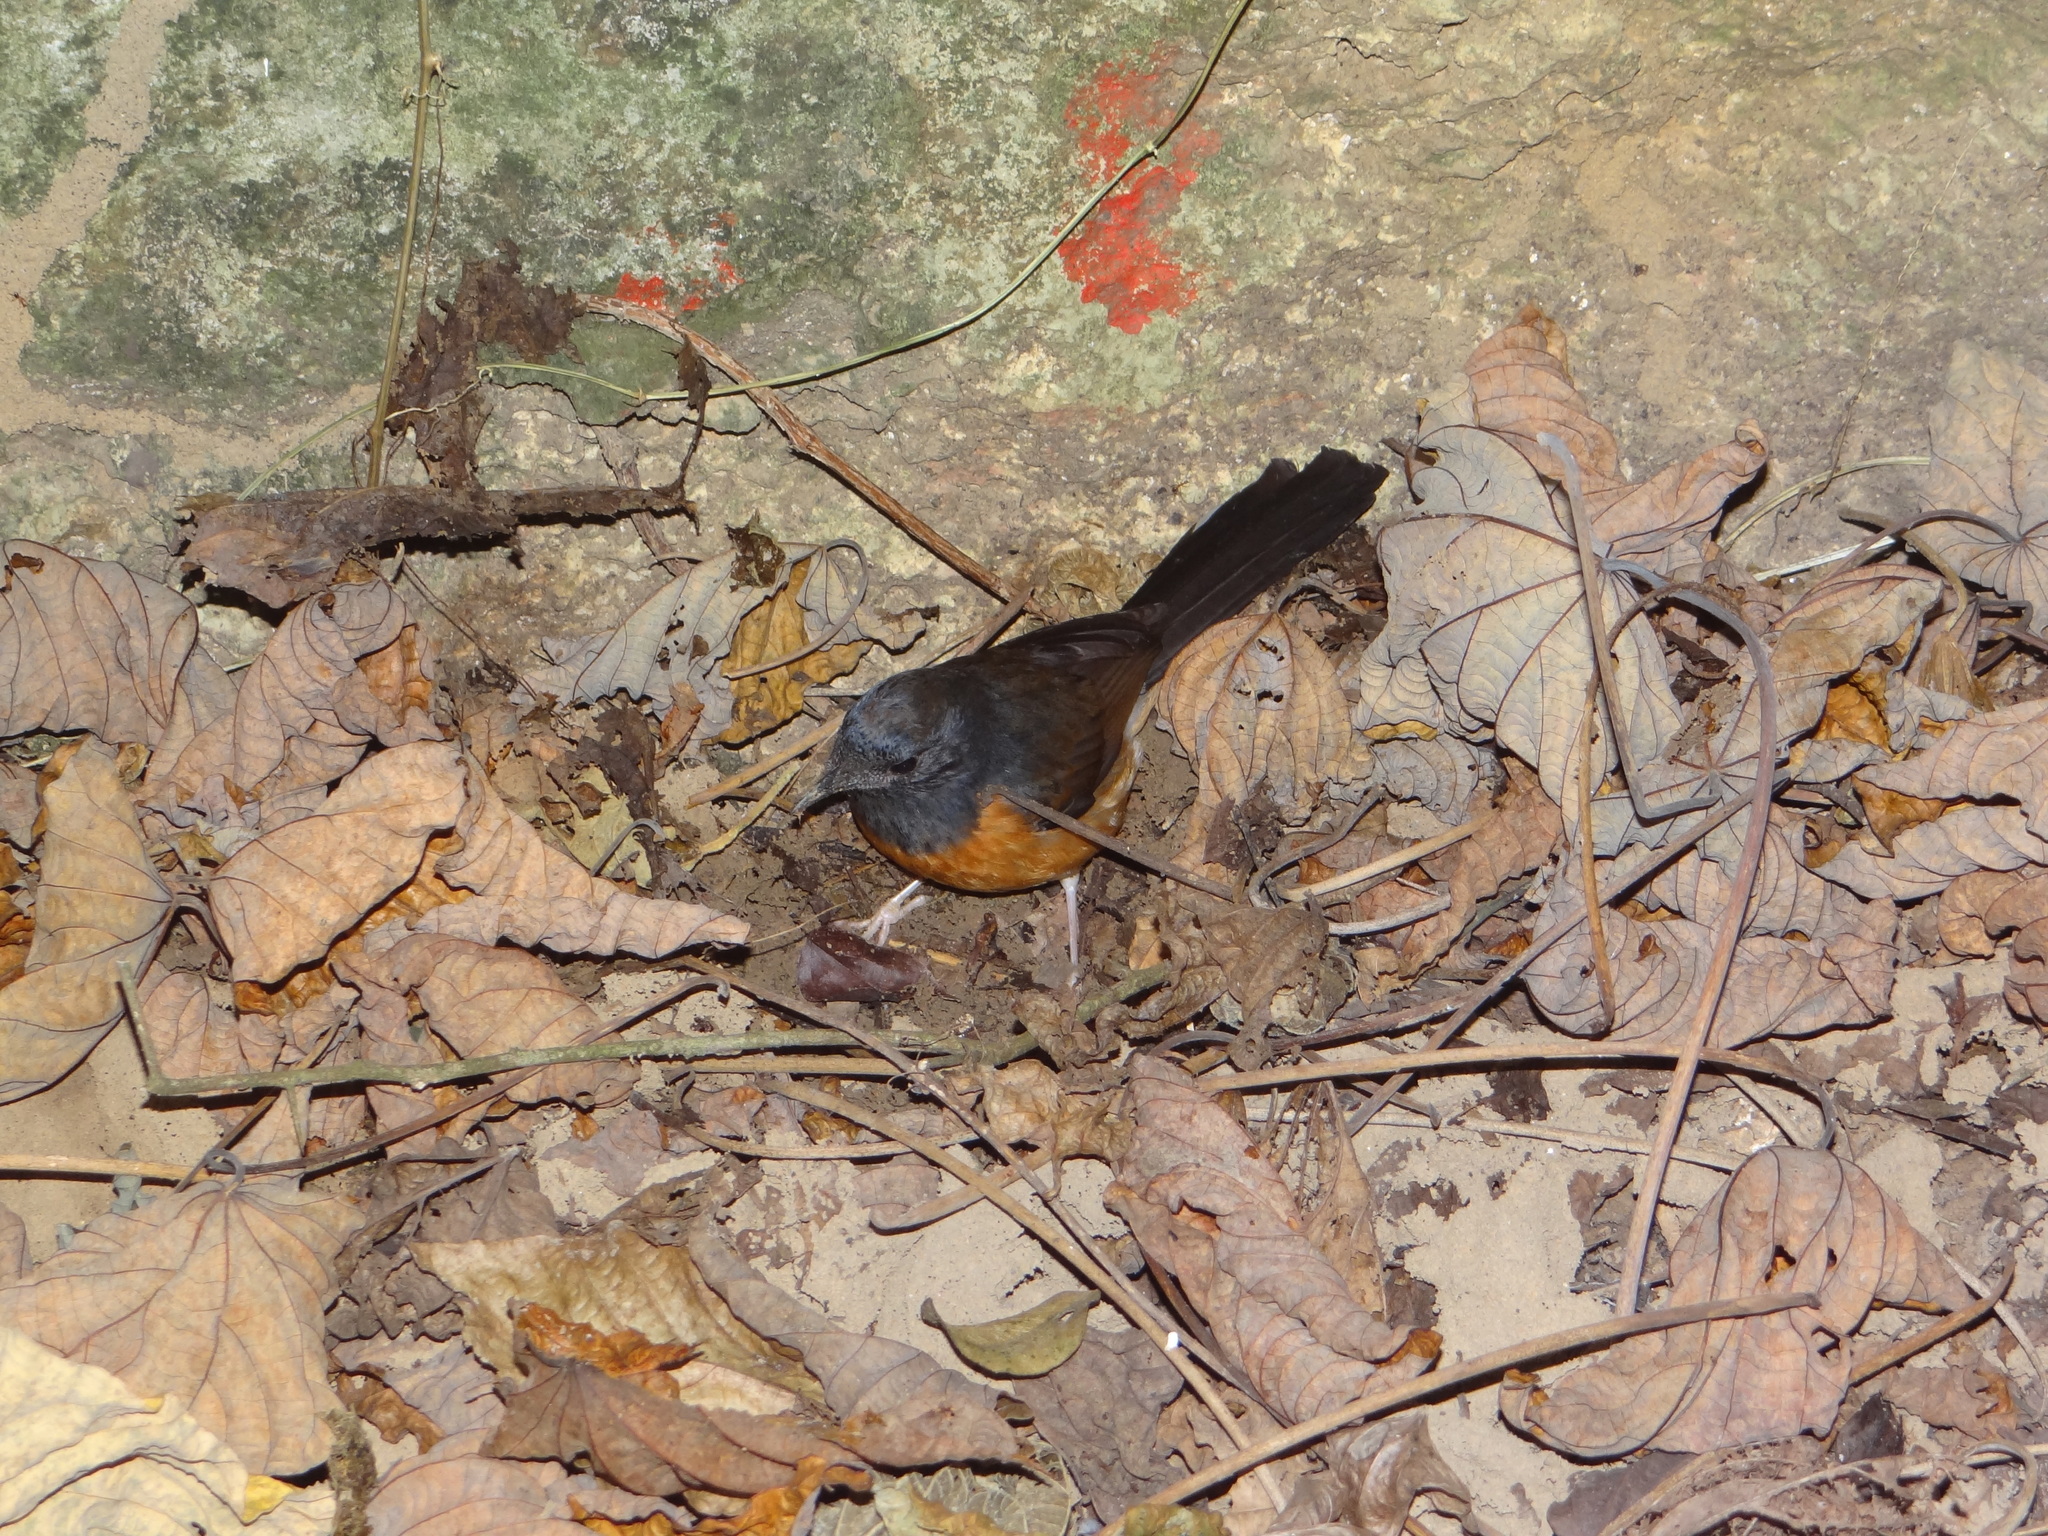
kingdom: Animalia
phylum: Chordata
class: Aves
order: Passeriformes
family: Muscicapidae
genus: Copsychus
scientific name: Copsychus malabaricus
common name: White-rumped shama
